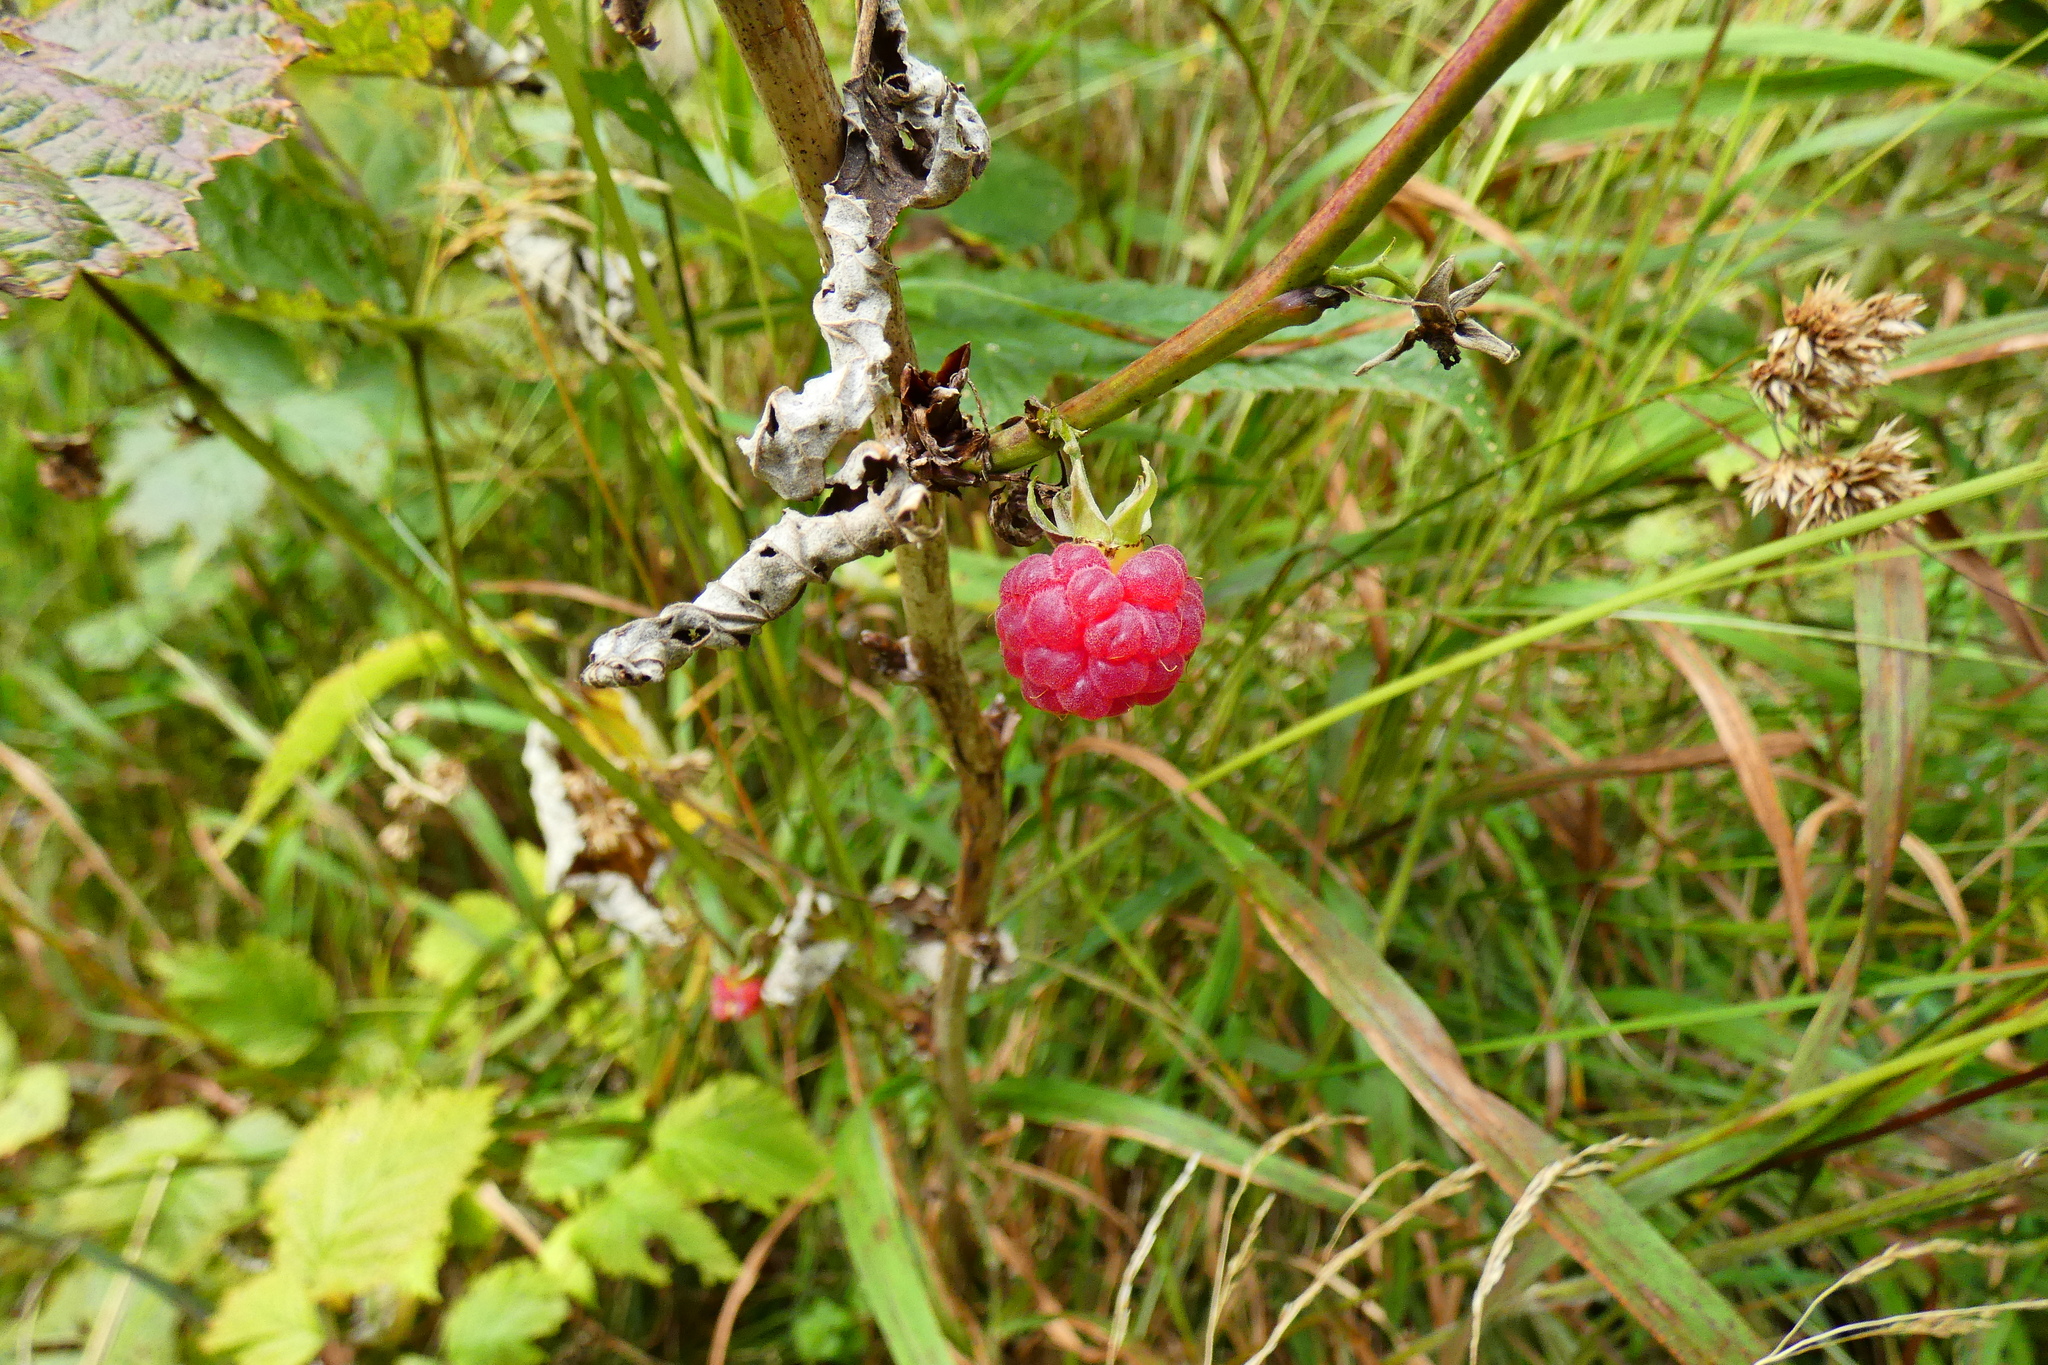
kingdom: Plantae
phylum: Tracheophyta
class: Magnoliopsida
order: Rosales
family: Rosaceae
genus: Rubus
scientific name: Rubus idaeus
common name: Raspberry
